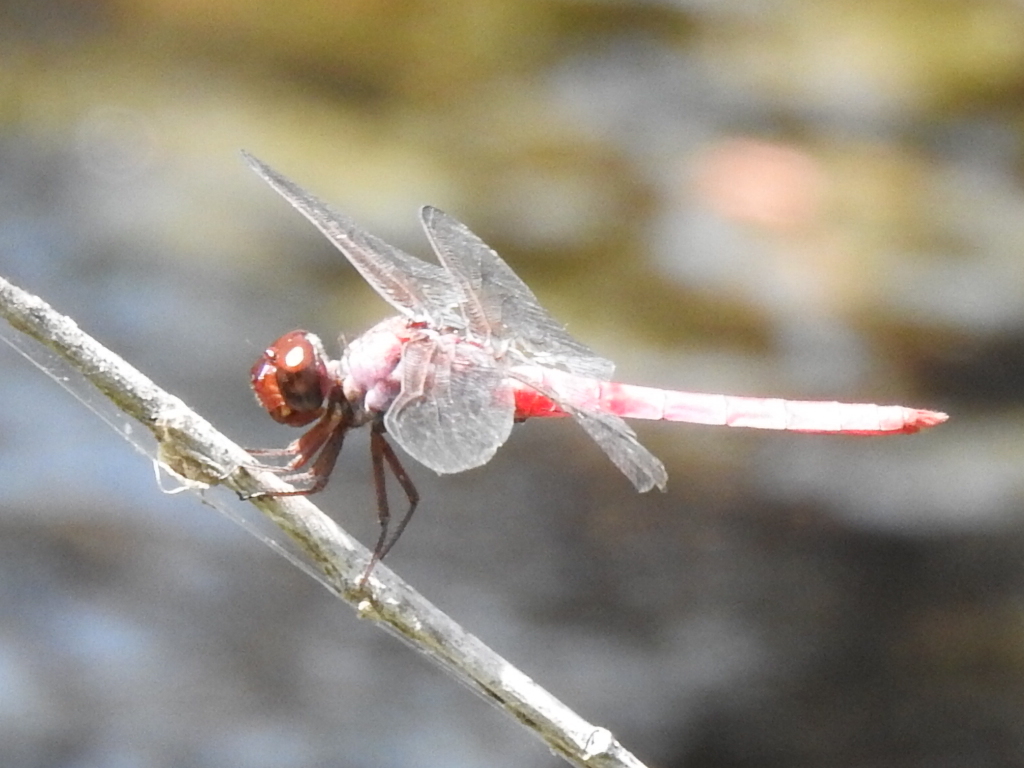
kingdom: Animalia
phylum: Arthropoda
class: Insecta
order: Odonata
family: Libellulidae
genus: Orthemis
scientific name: Orthemis ferruginea
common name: Roseate skimmer
